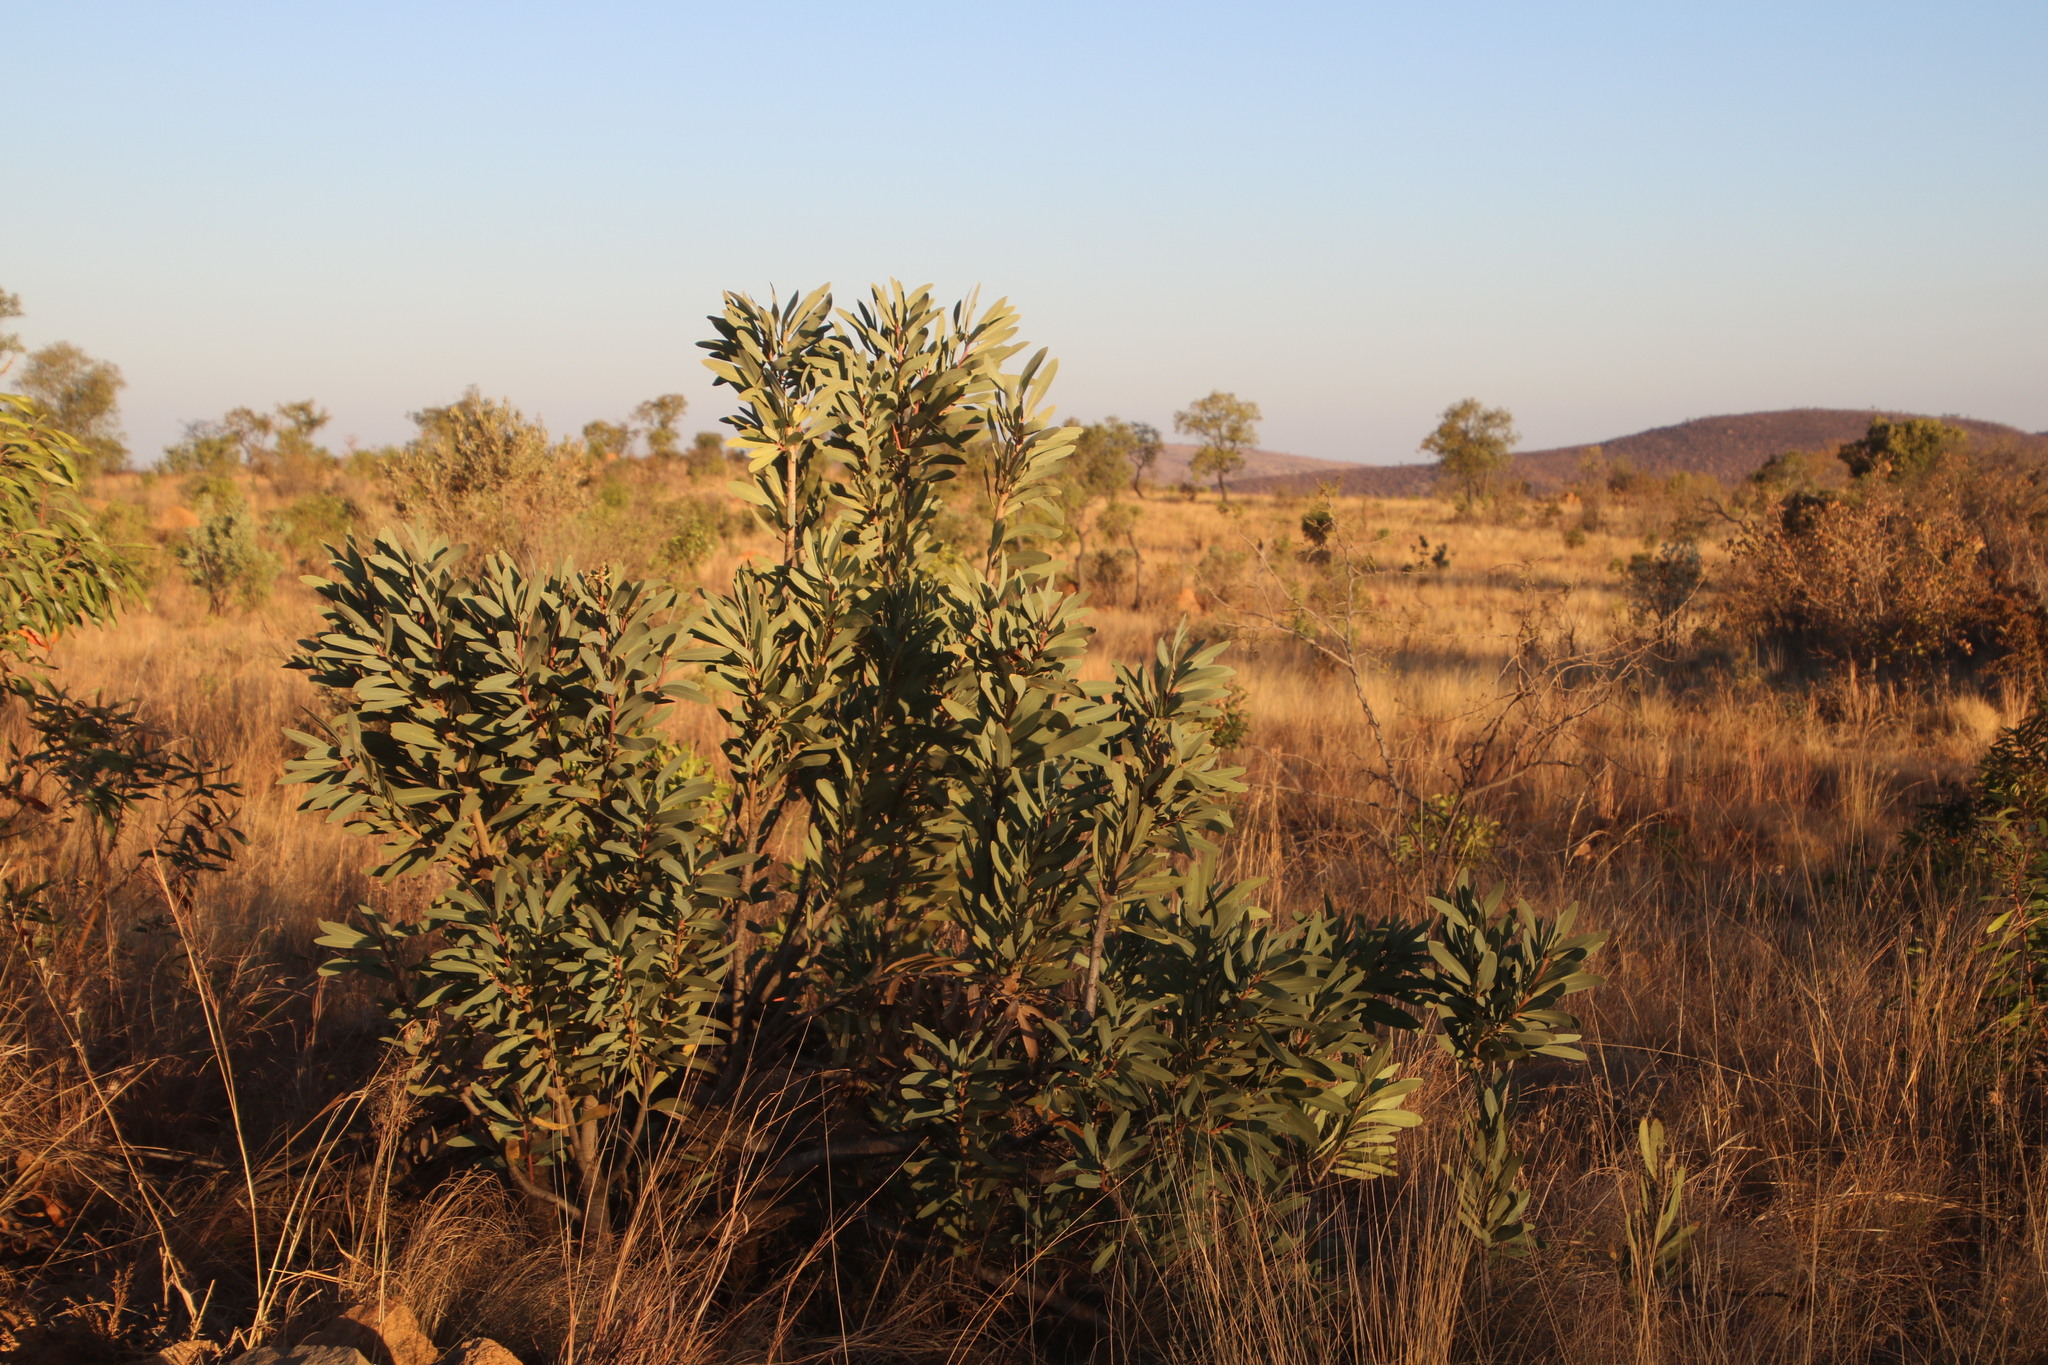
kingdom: Plantae
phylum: Tracheophyta
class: Magnoliopsida
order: Proteales
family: Proteaceae
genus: Protea
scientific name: Protea caffra
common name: Common sugarbush
